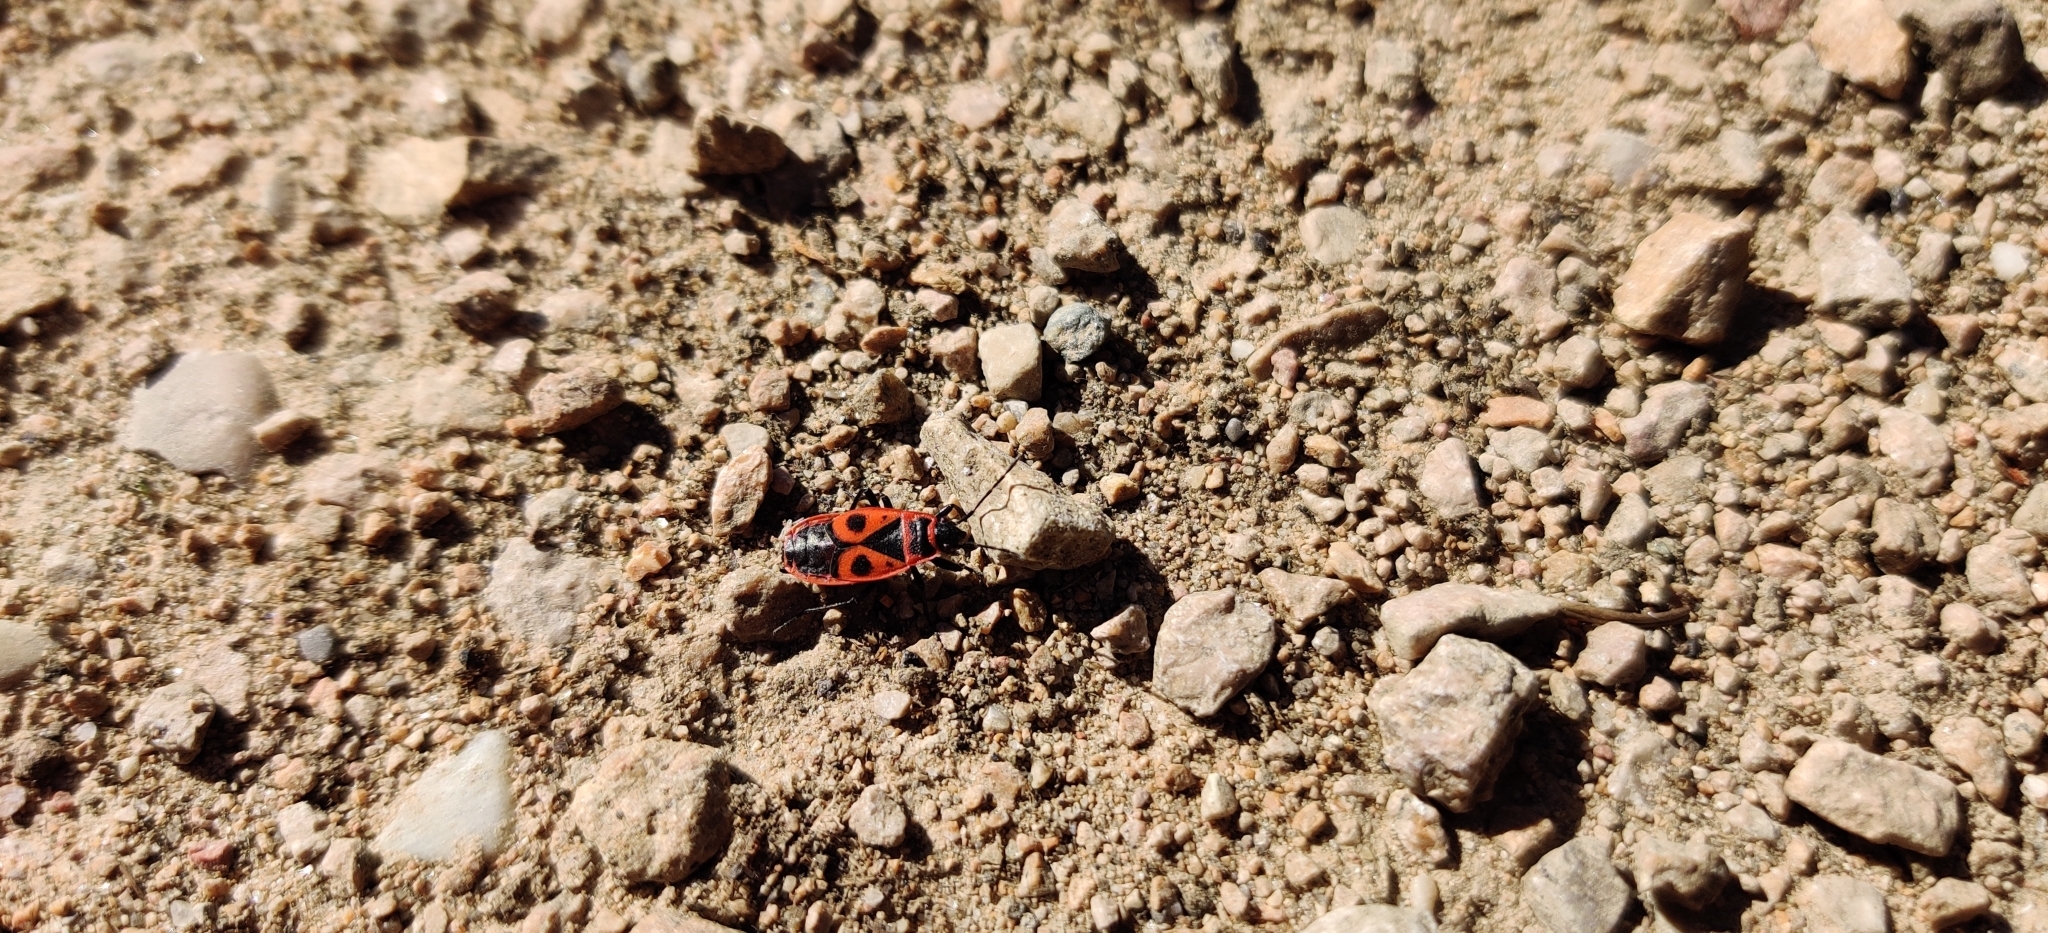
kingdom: Animalia
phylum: Arthropoda
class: Insecta
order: Hemiptera
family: Pyrrhocoridae
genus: Pyrrhocoris
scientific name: Pyrrhocoris apterus
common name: Firebug
